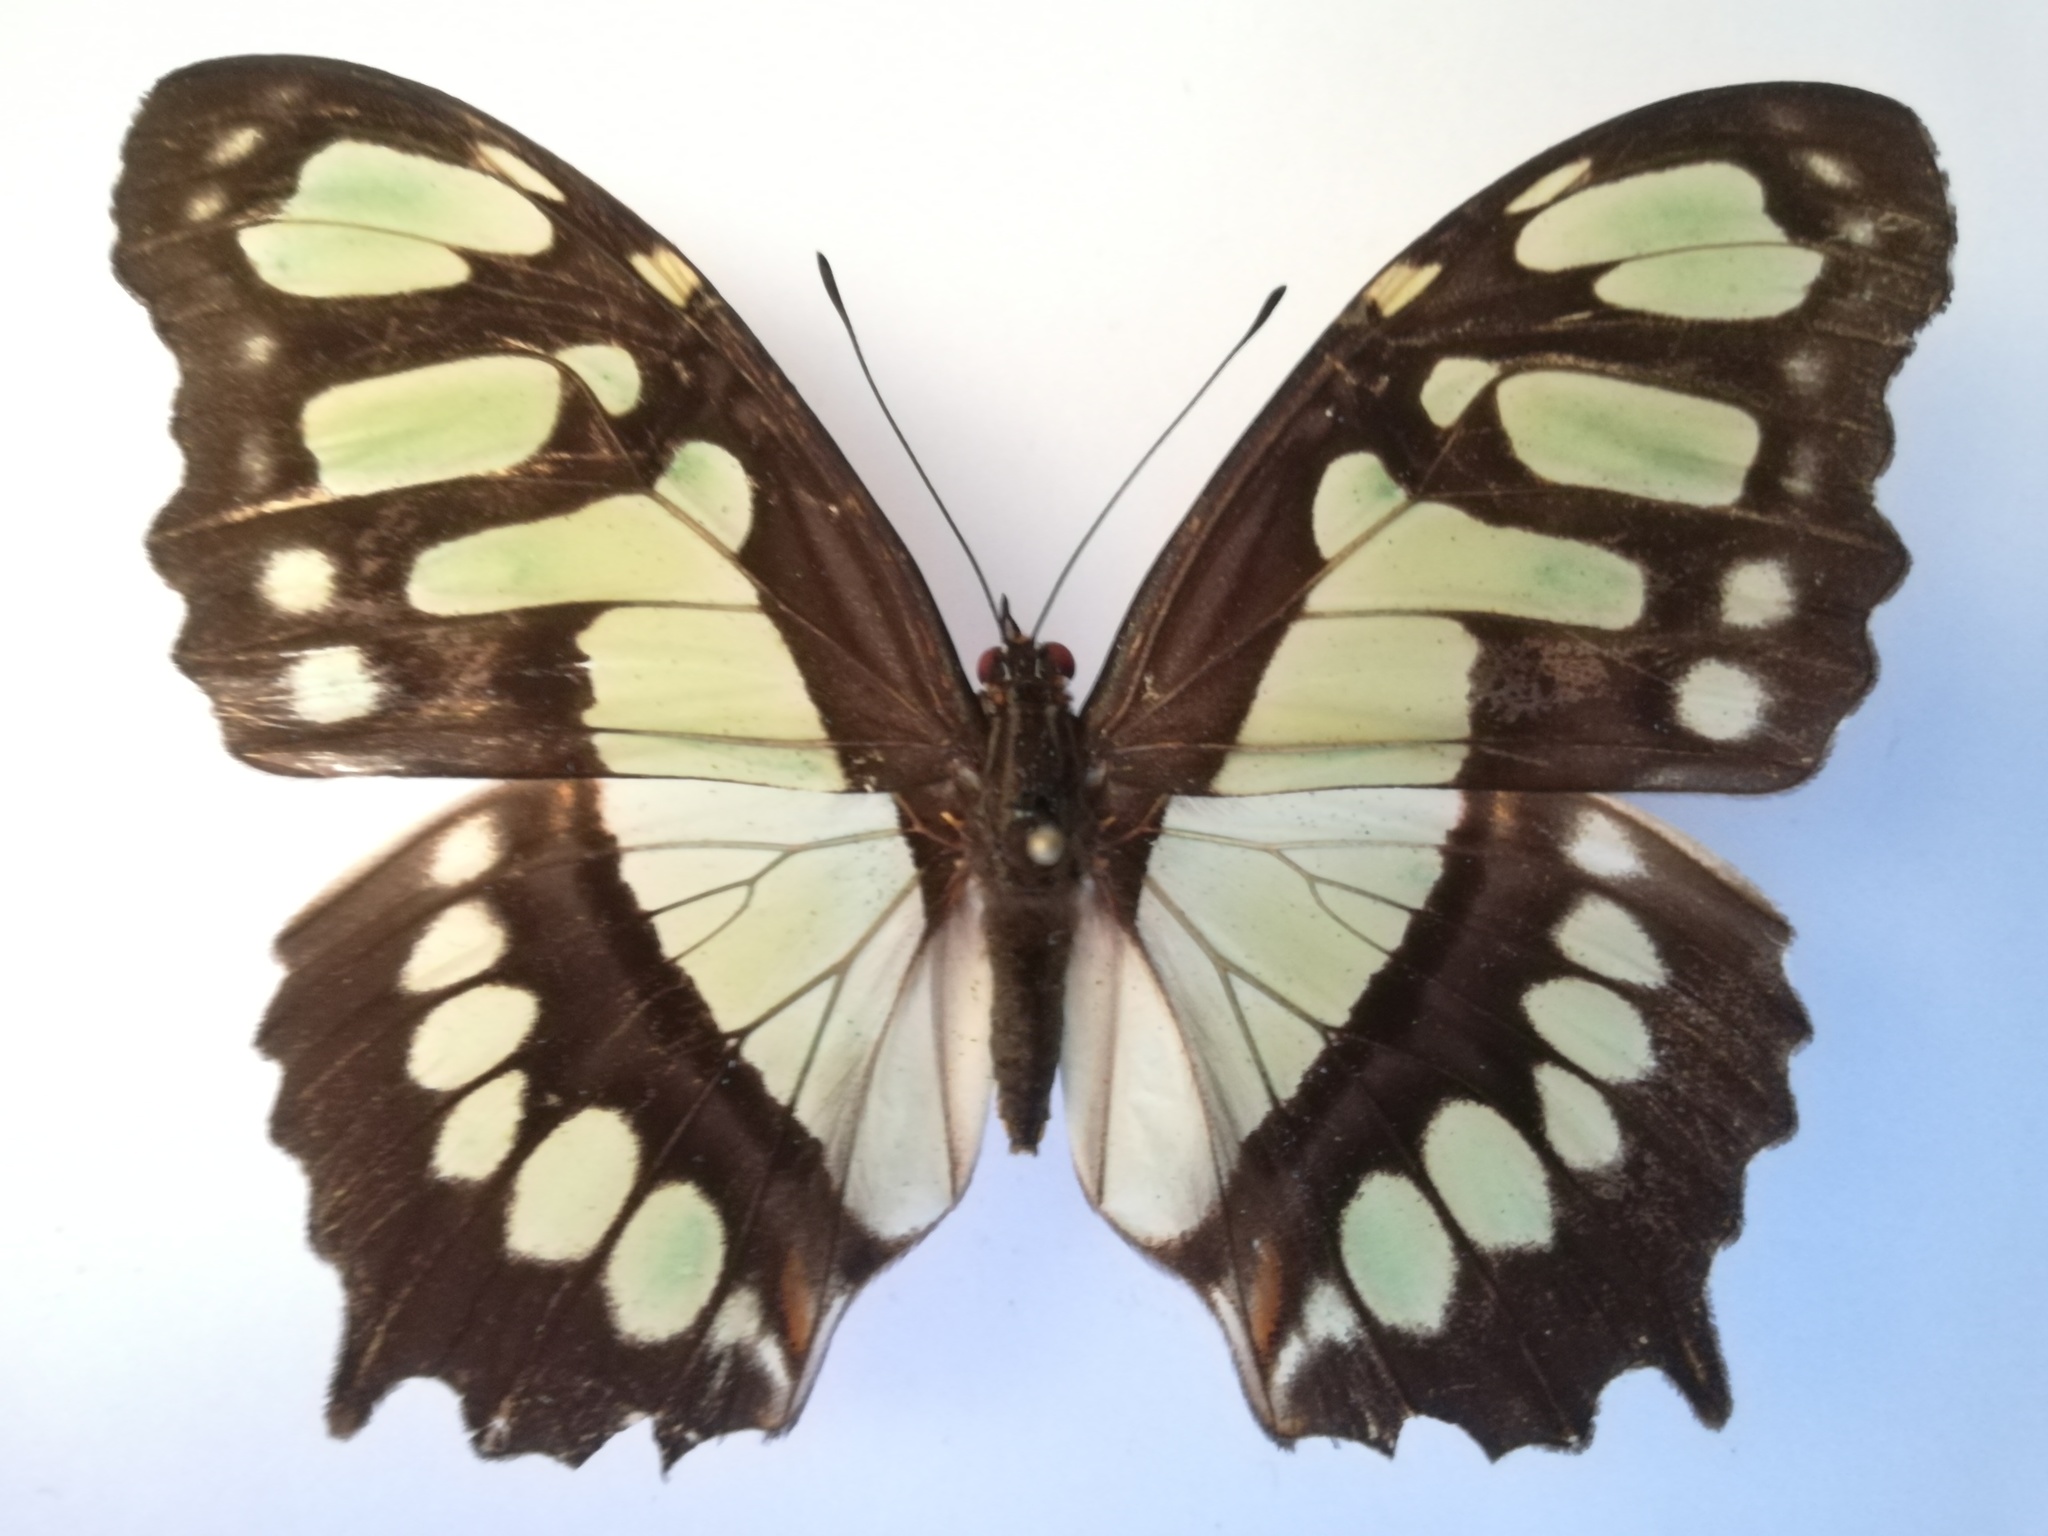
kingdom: Animalia
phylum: Arthropoda
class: Insecta
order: Lepidoptera
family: Nymphalidae
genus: Siproeta
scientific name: Siproeta stelenes
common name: Malachite
